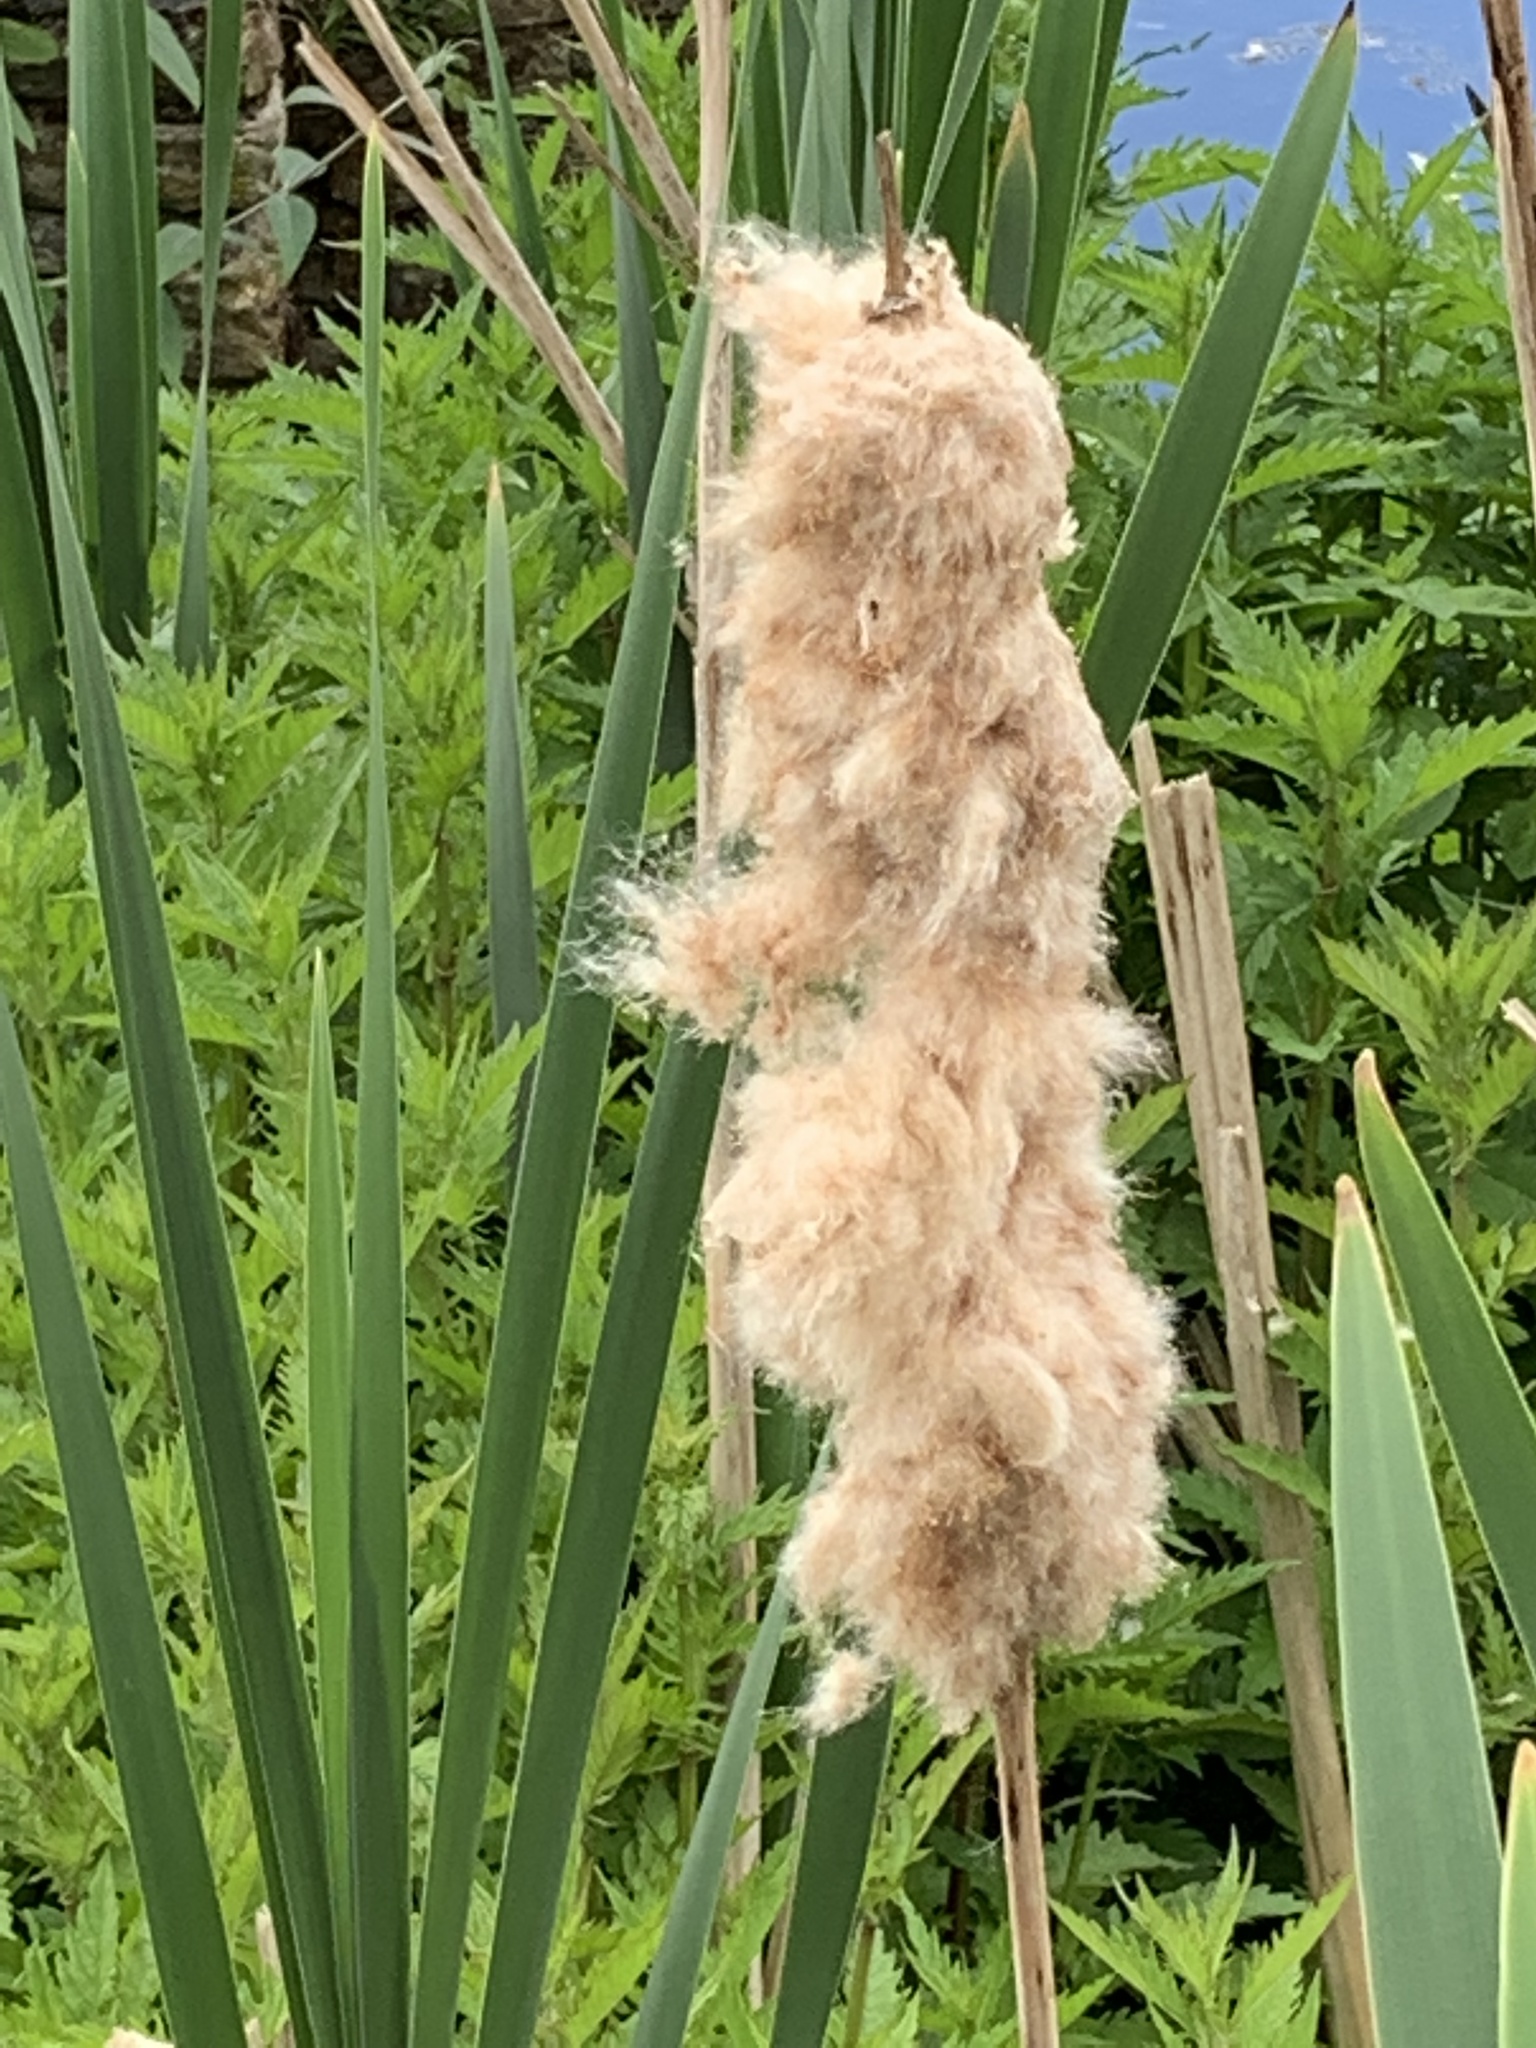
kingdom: Plantae
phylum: Tracheophyta
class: Liliopsida
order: Poales
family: Typhaceae
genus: Typha
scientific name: Typha latifolia
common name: Broadleaf cattail
